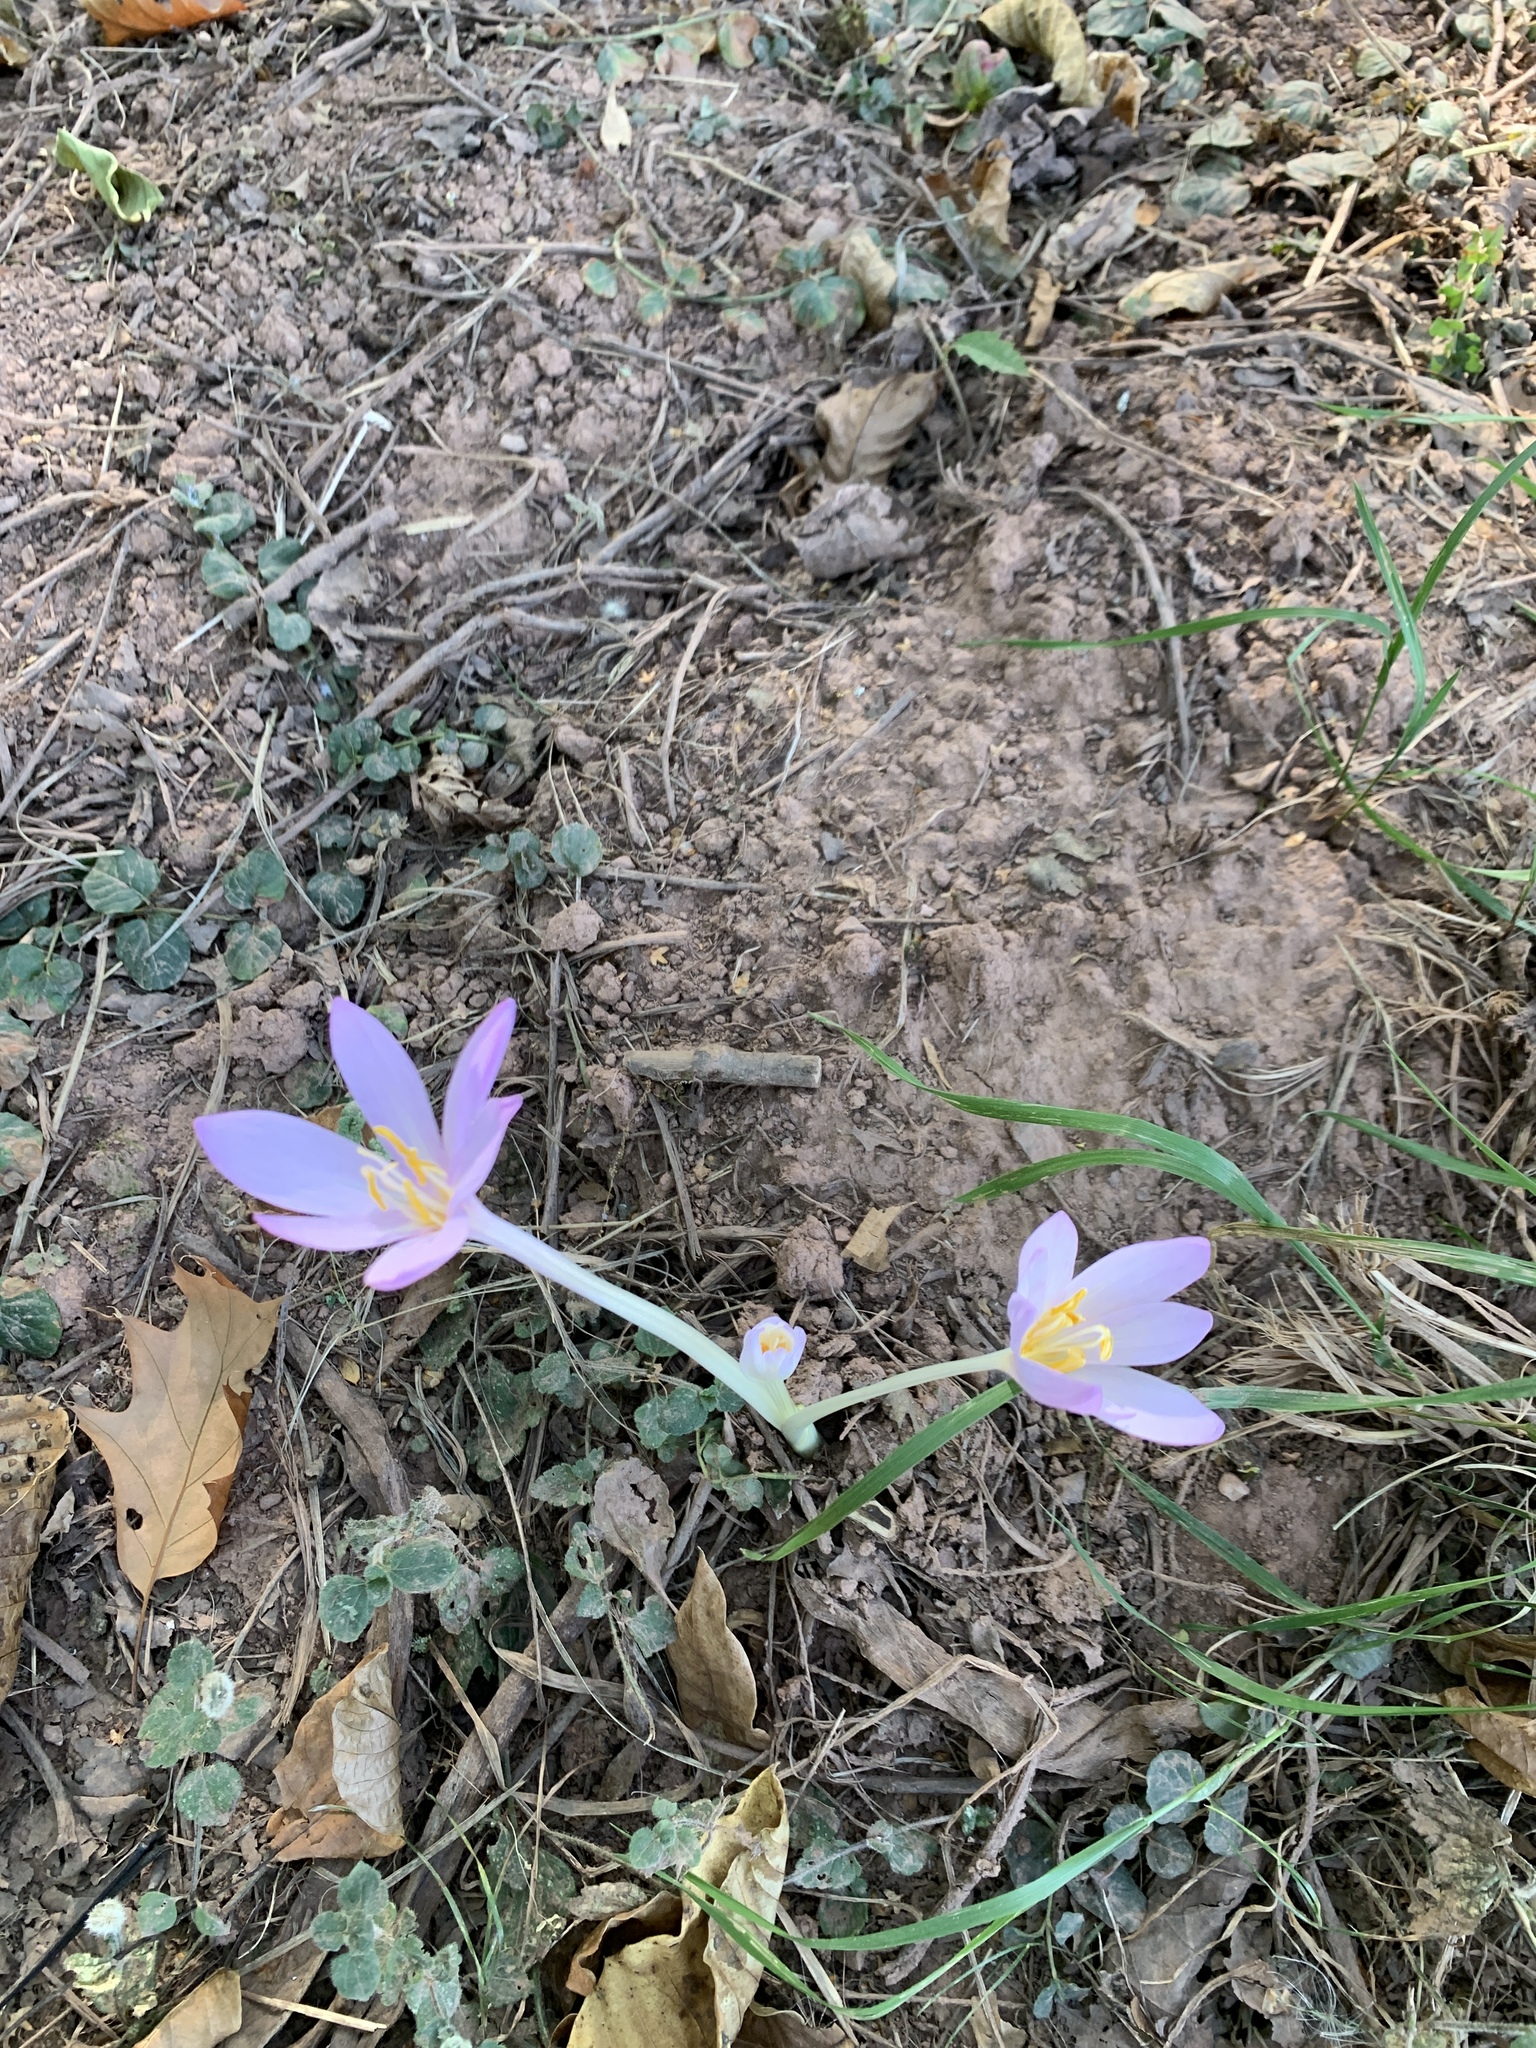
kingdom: Plantae
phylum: Tracheophyta
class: Liliopsida
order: Liliales
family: Colchicaceae
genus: Colchicum
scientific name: Colchicum autumnale
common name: Autumn crocus
